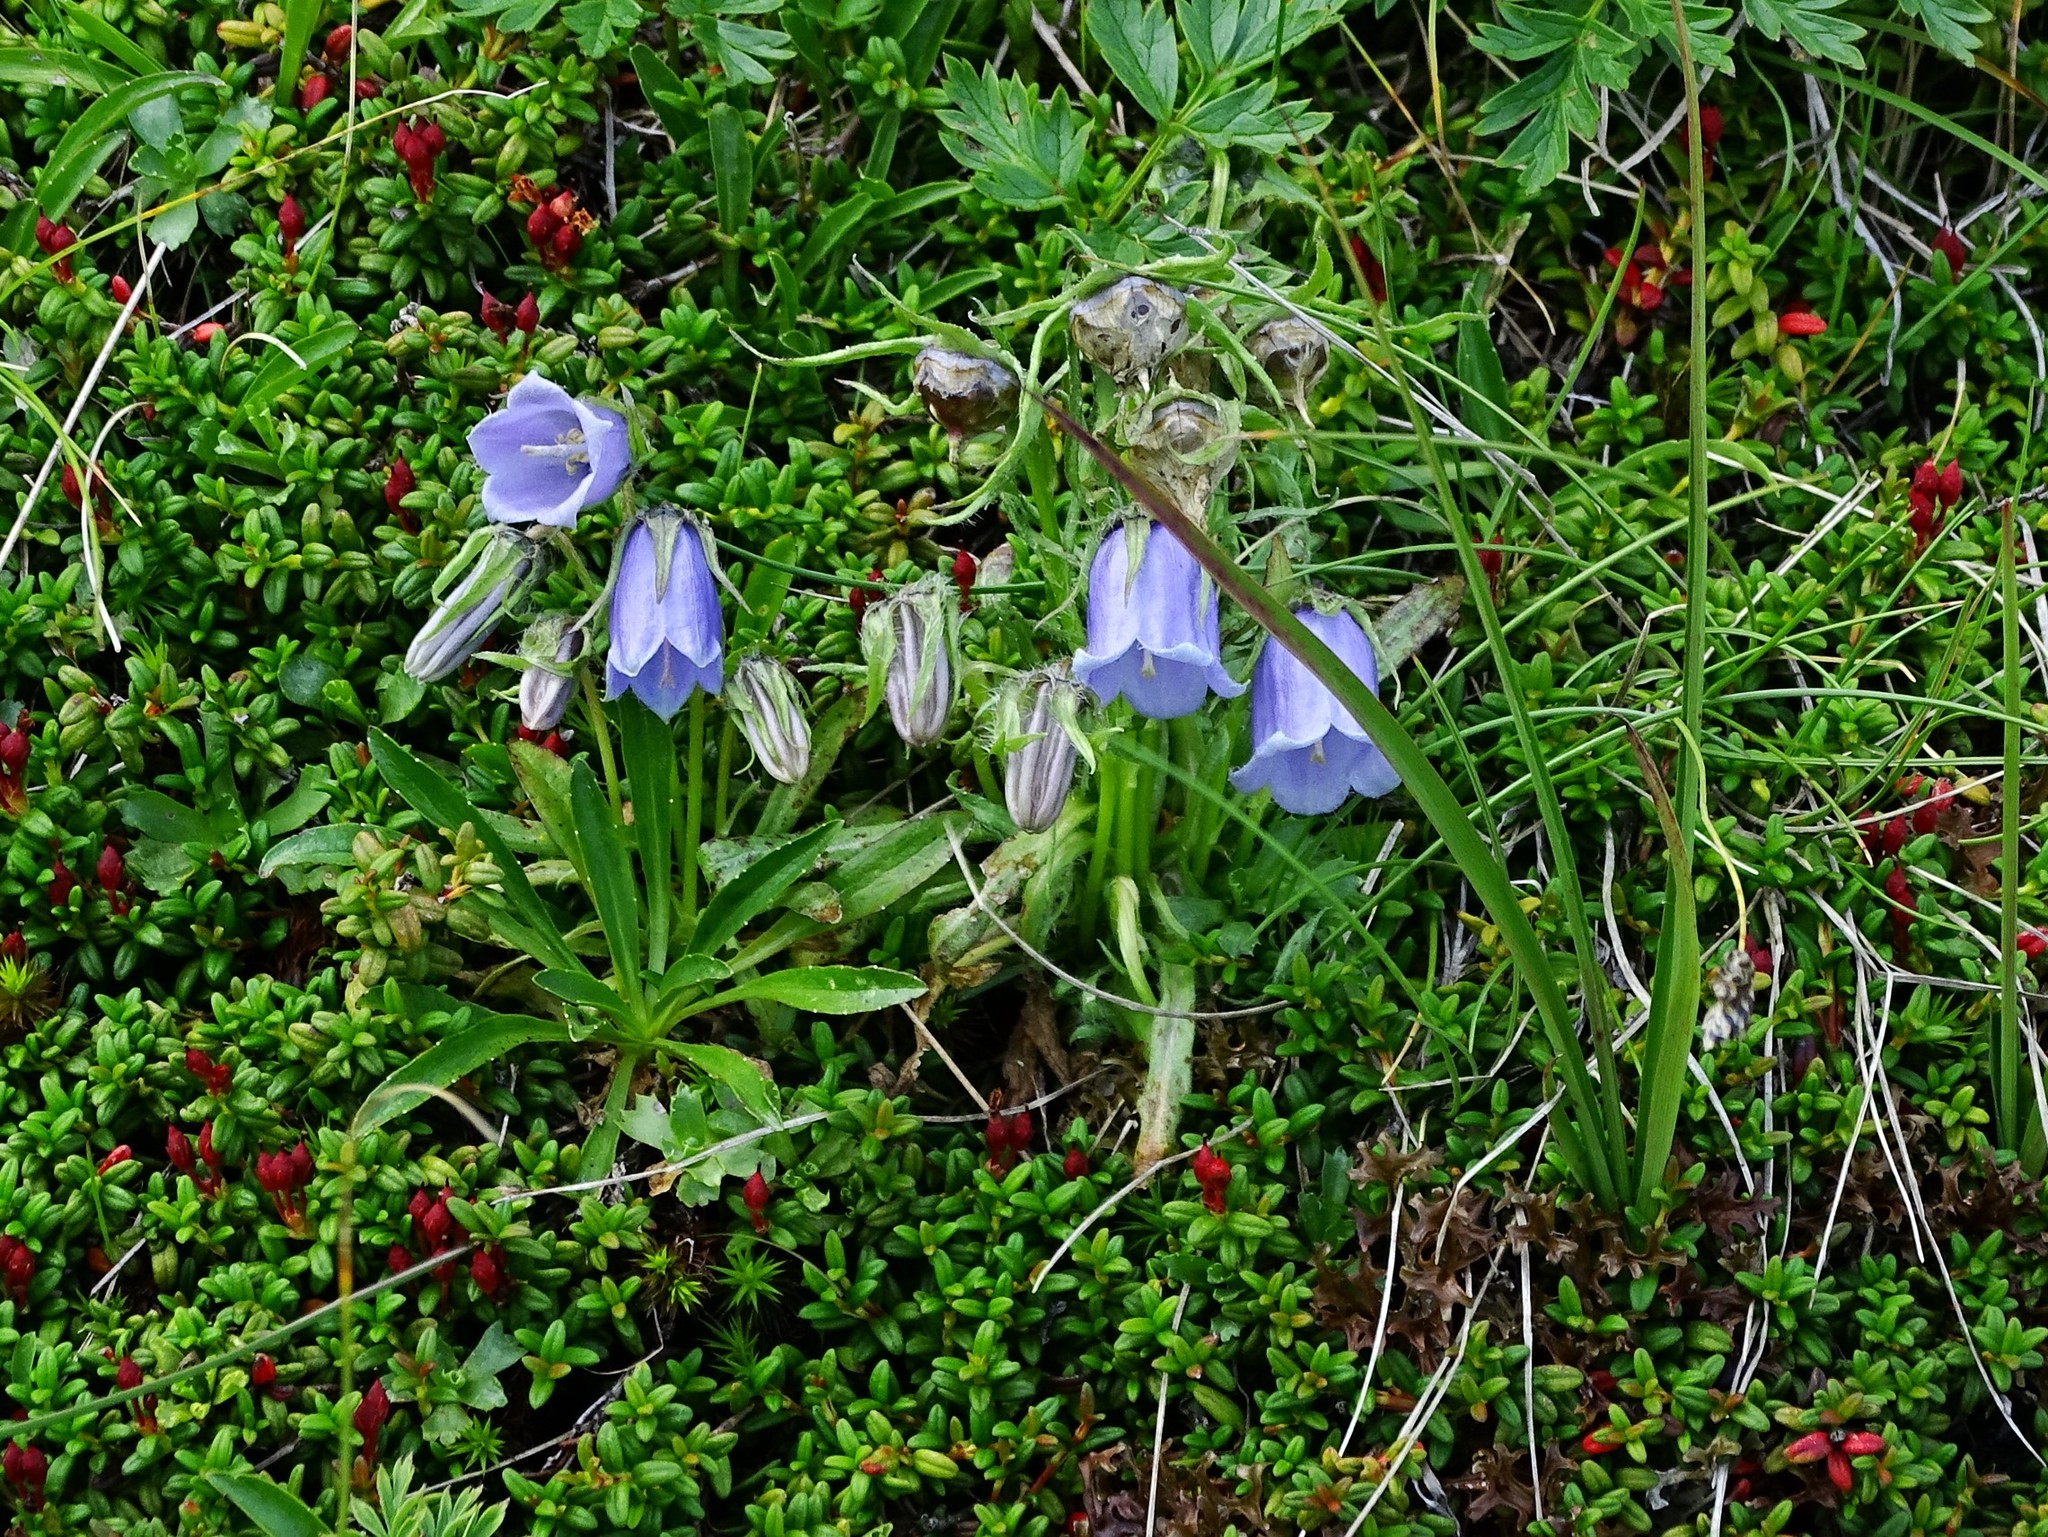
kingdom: Plantae
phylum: Tracheophyta
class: Magnoliopsida
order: Asterales
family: Campanulaceae
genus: Campanula
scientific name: Campanula alpina
